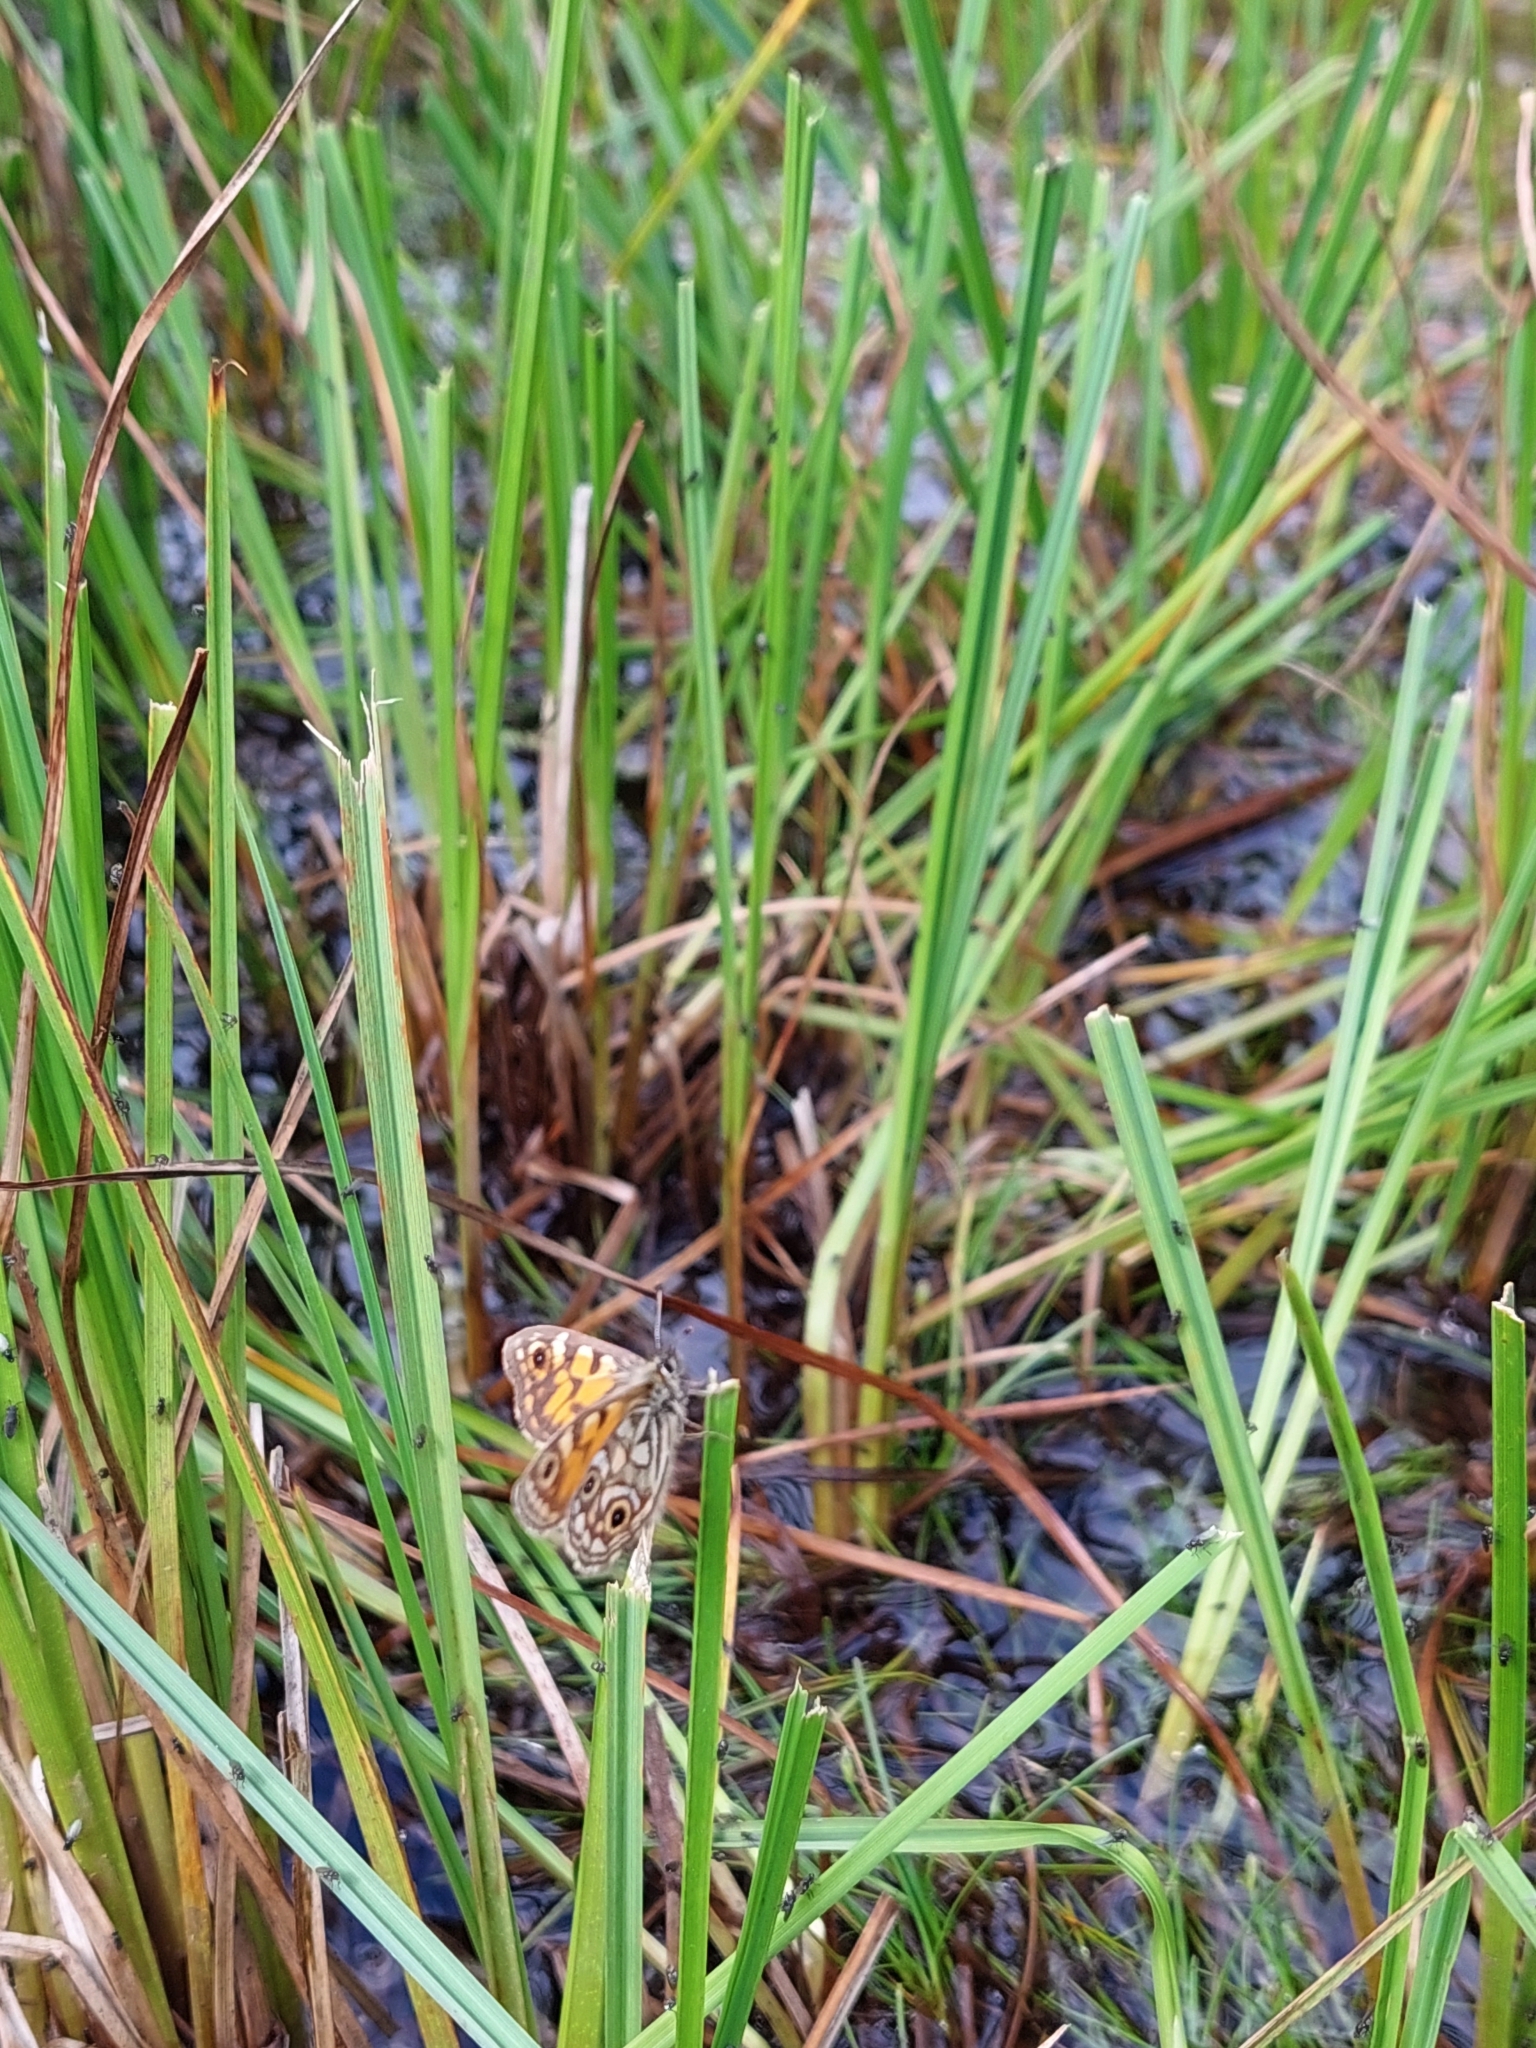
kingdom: Animalia
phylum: Arthropoda
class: Insecta
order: Lepidoptera
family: Nymphalidae
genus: Oreixenica
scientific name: Oreixenica lathoniella
